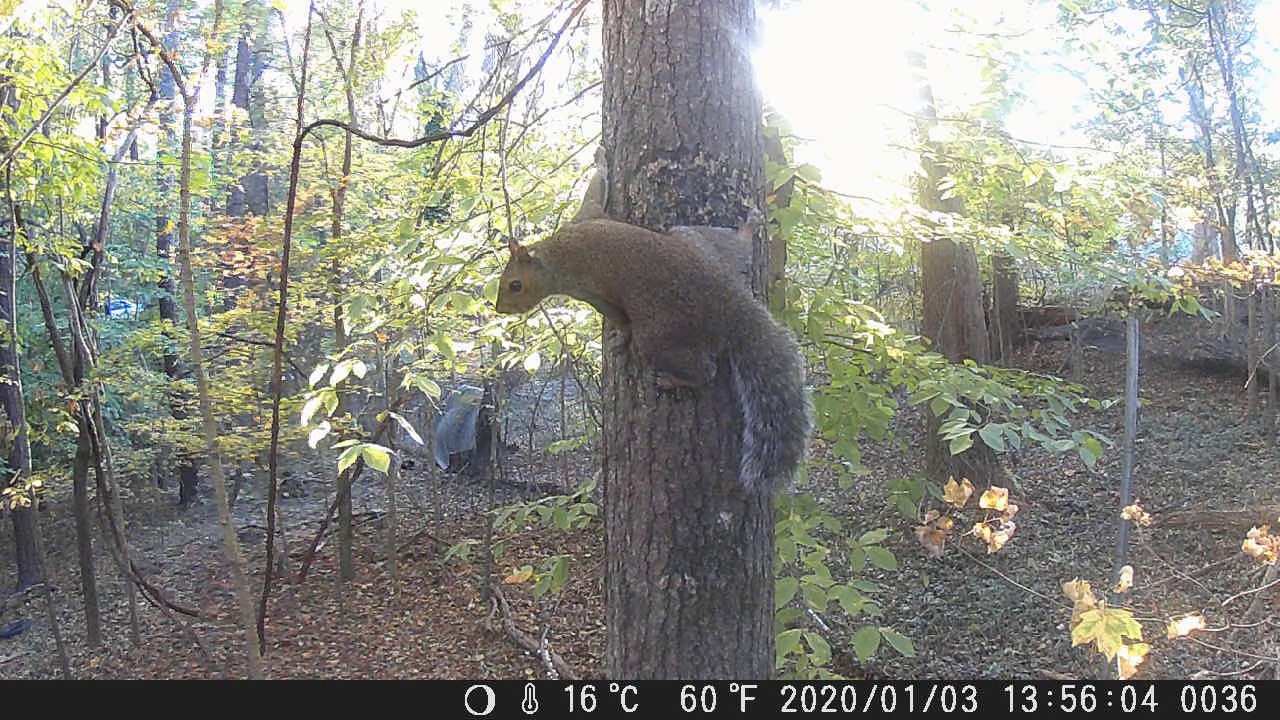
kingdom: Animalia
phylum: Chordata
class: Mammalia
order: Rodentia
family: Sciuridae
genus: Sciurus
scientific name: Sciurus carolinensis
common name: Eastern gray squirrel
